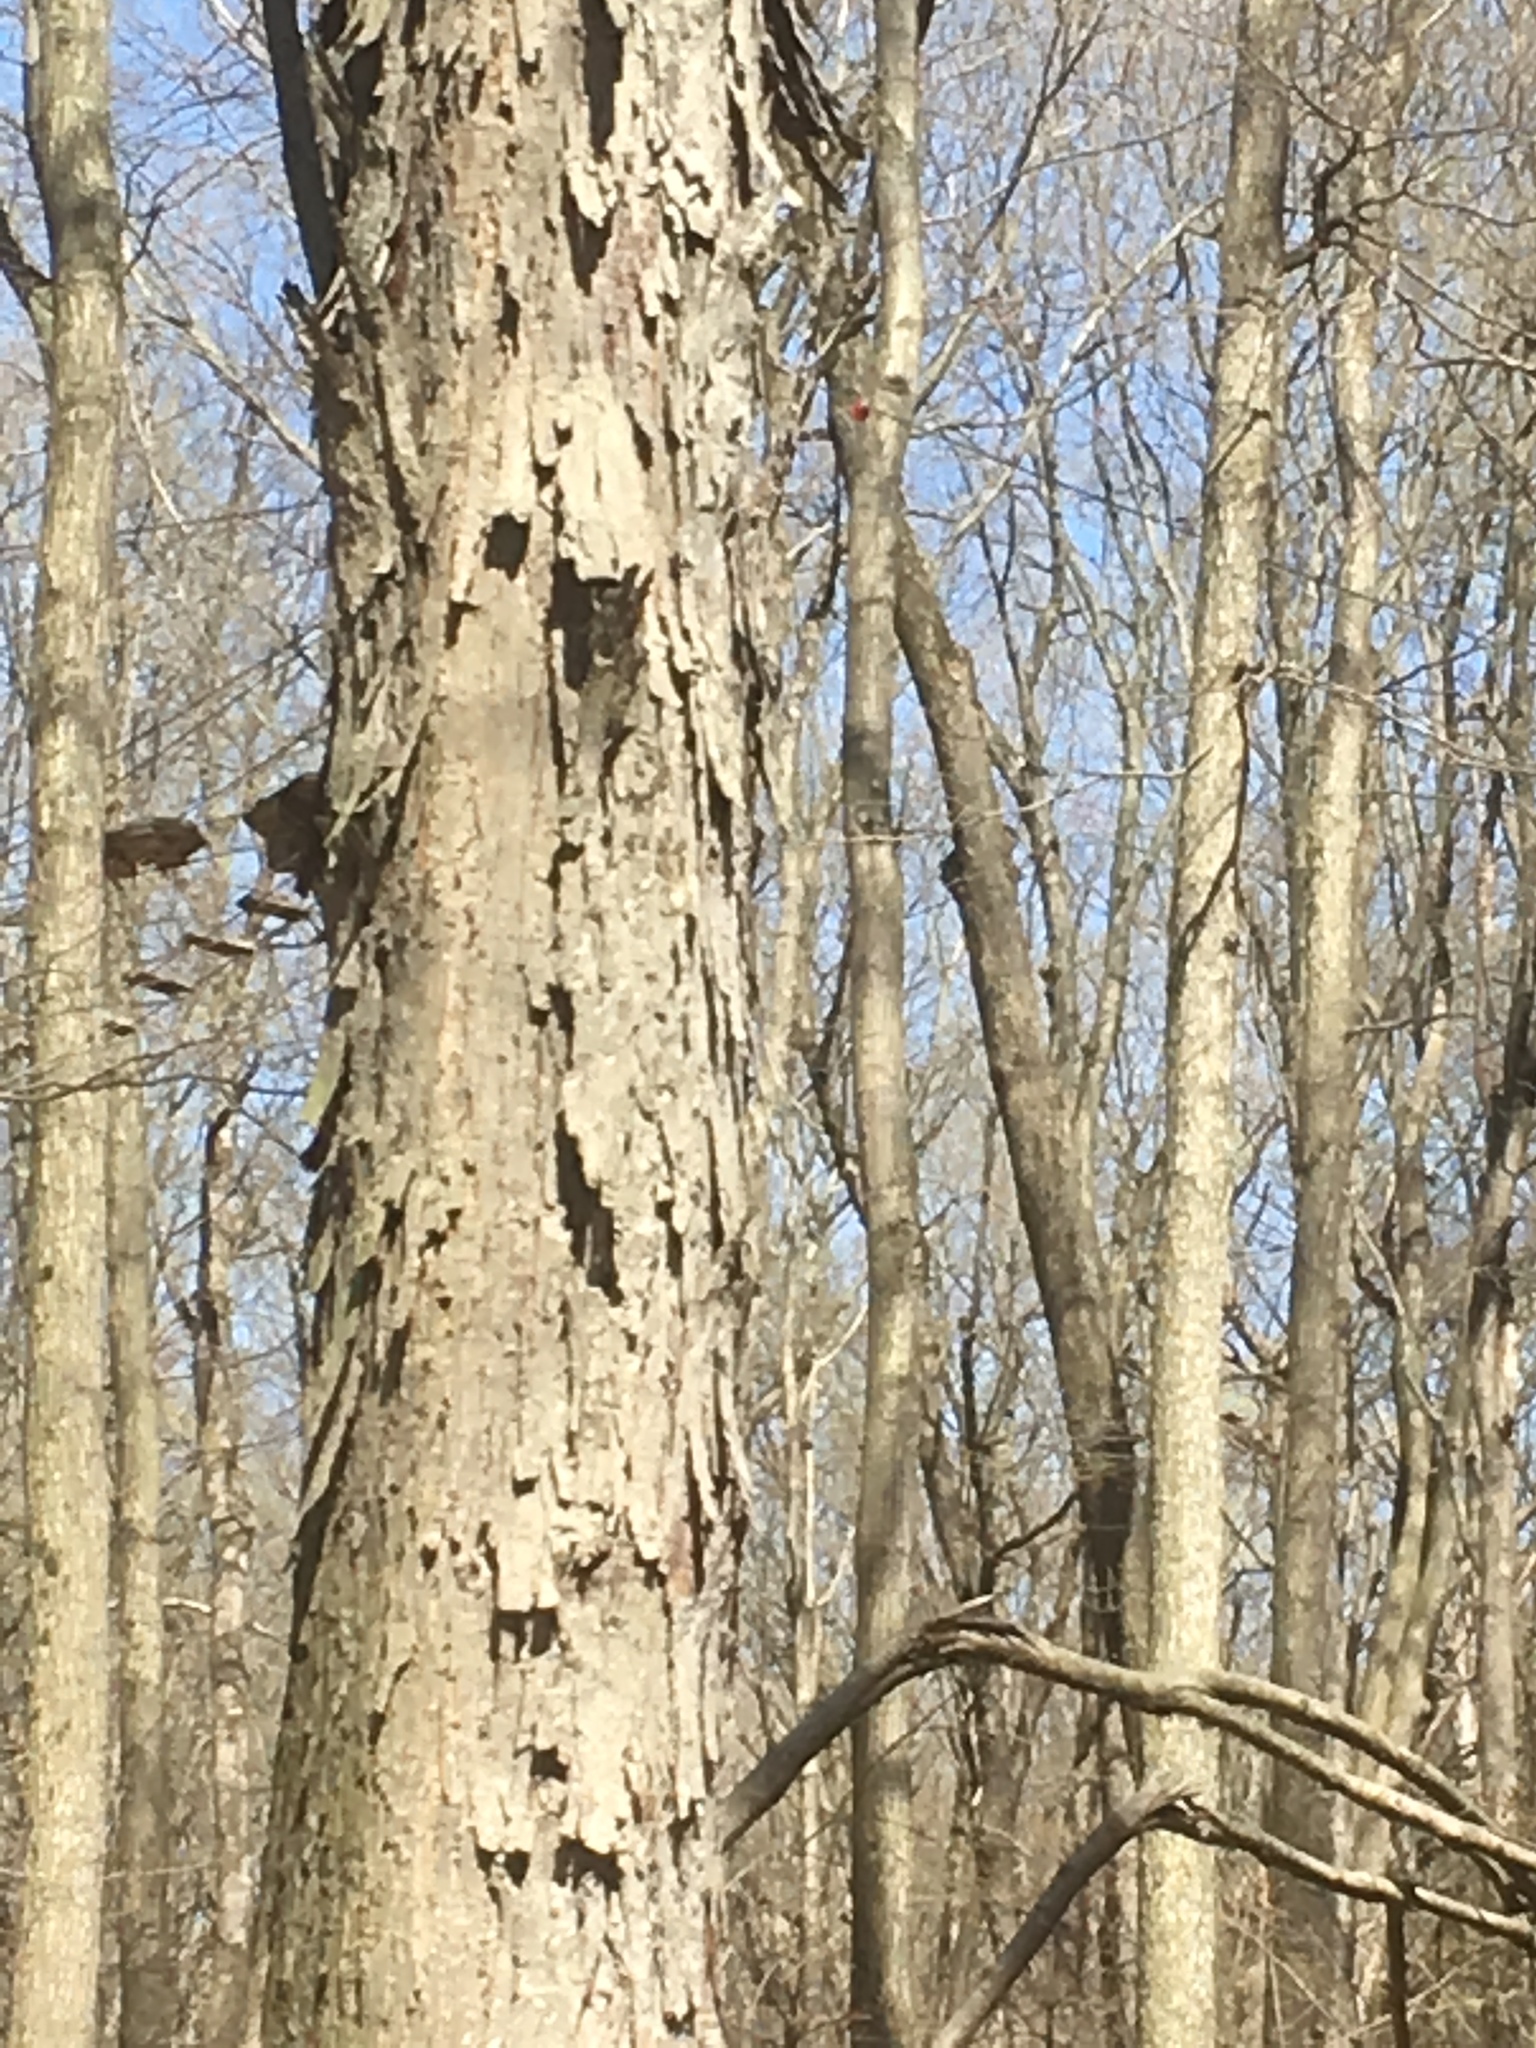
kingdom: Plantae
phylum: Tracheophyta
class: Magnoliopsida
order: Fagales
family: Juglandaceae
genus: Carya
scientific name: Carya ovata
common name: Shagbark hickory
